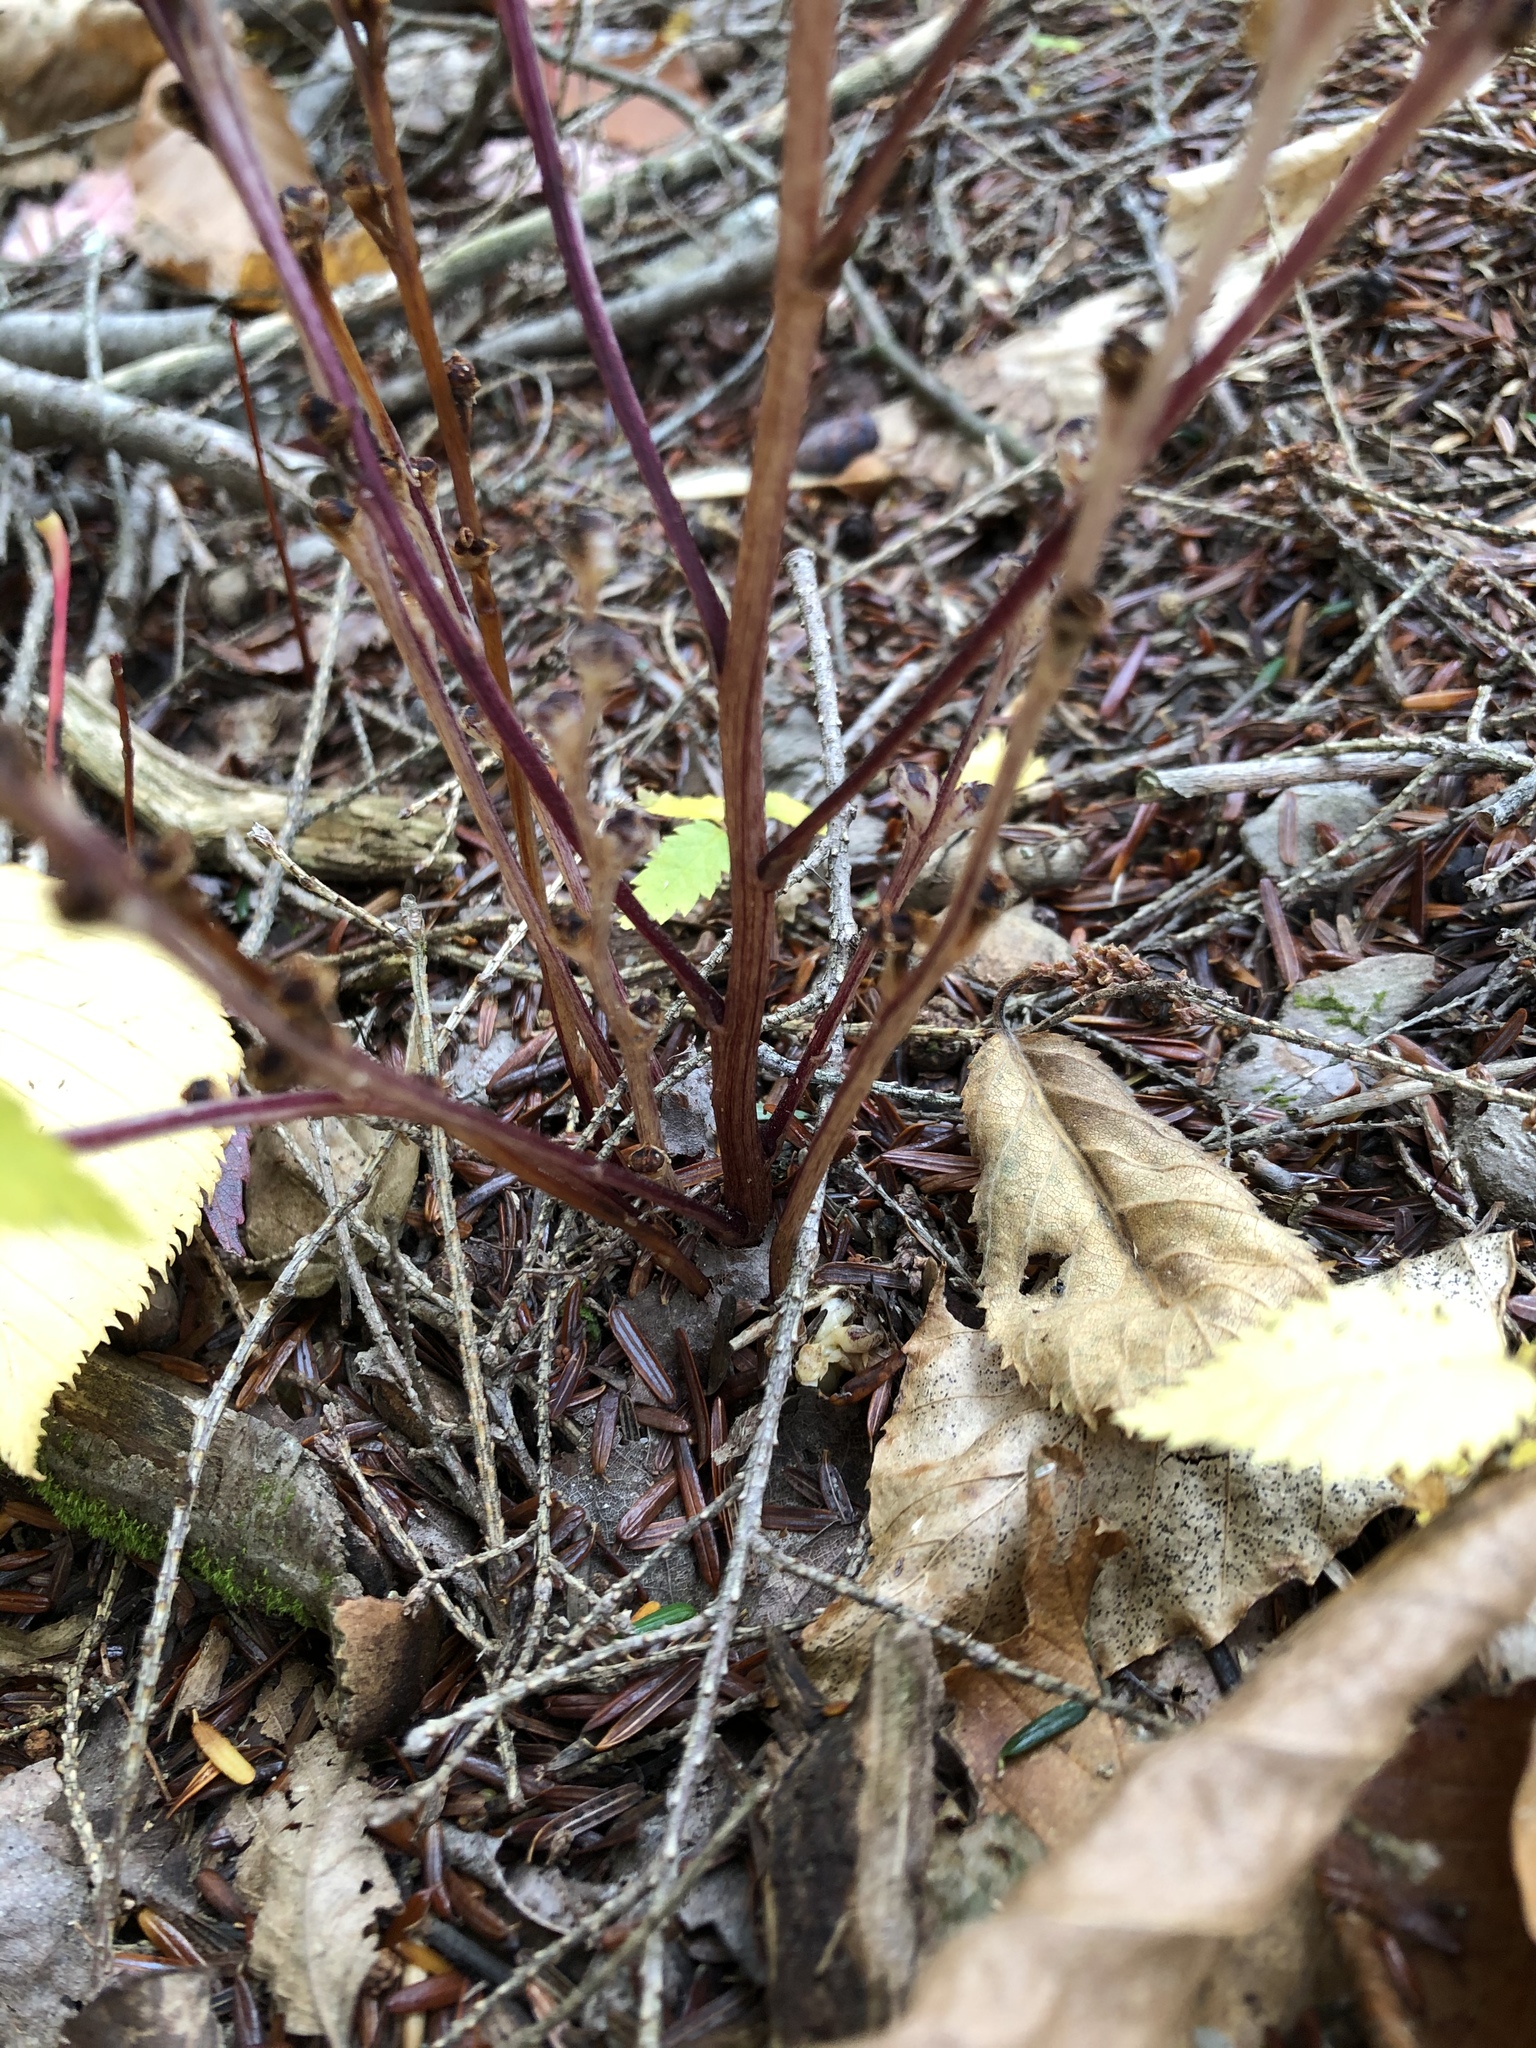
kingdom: Plantae
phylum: Tracheophyta
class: Magnoliopsida
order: Lamiales
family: Orobanchaceae
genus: Epifagus
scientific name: Epifagus virginiana
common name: Beechdrops
